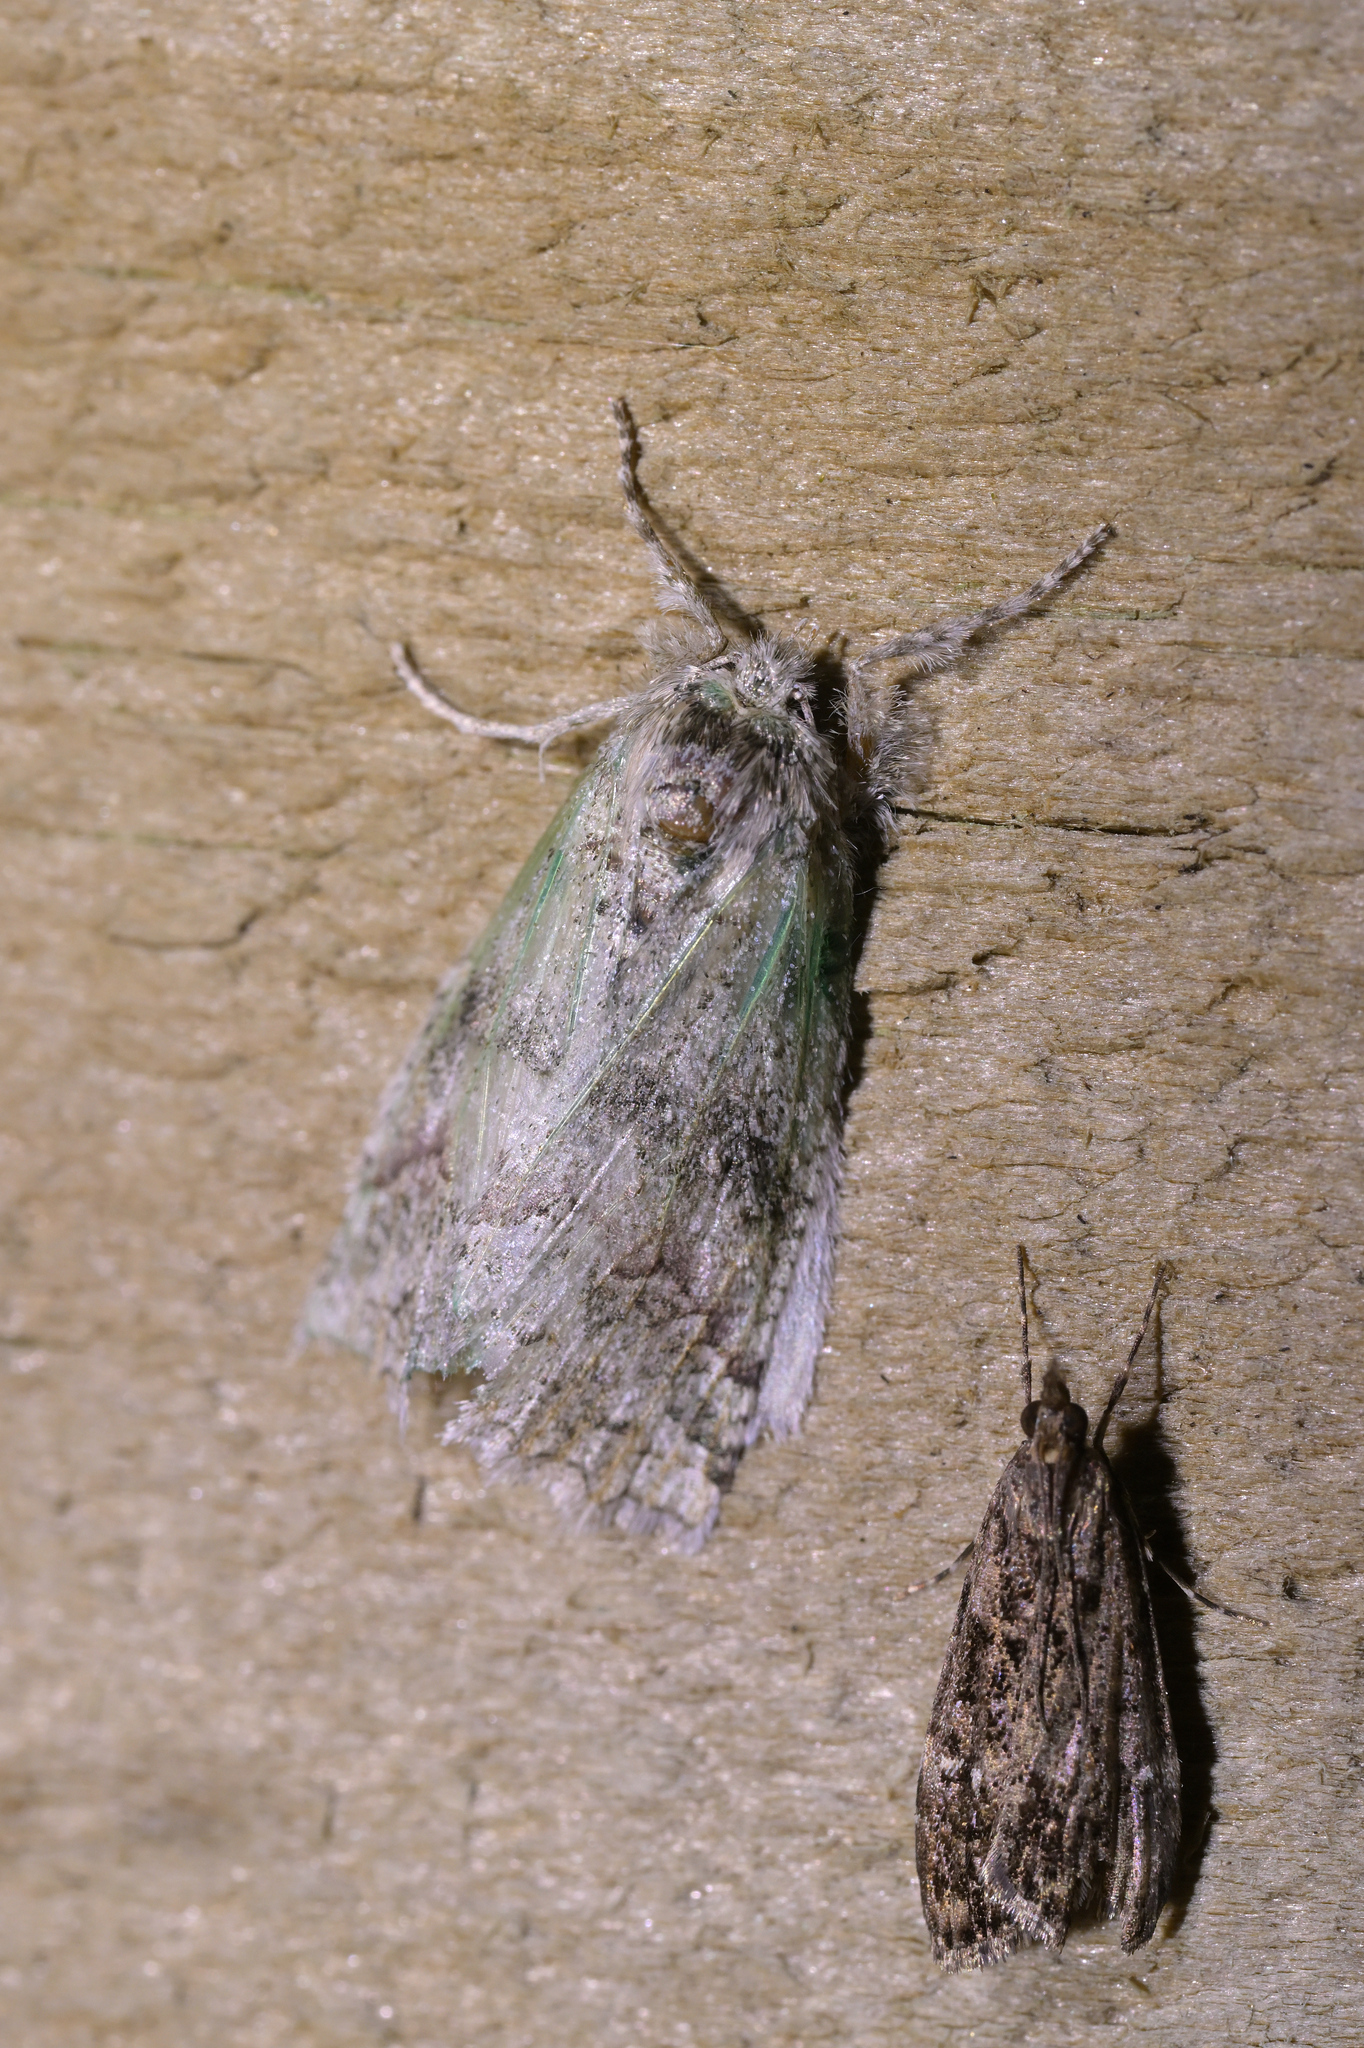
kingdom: Animalia
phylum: Arthropoda
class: Insecta
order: Lepidoptera
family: Geometridae
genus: Declana
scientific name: Declana floccosa
